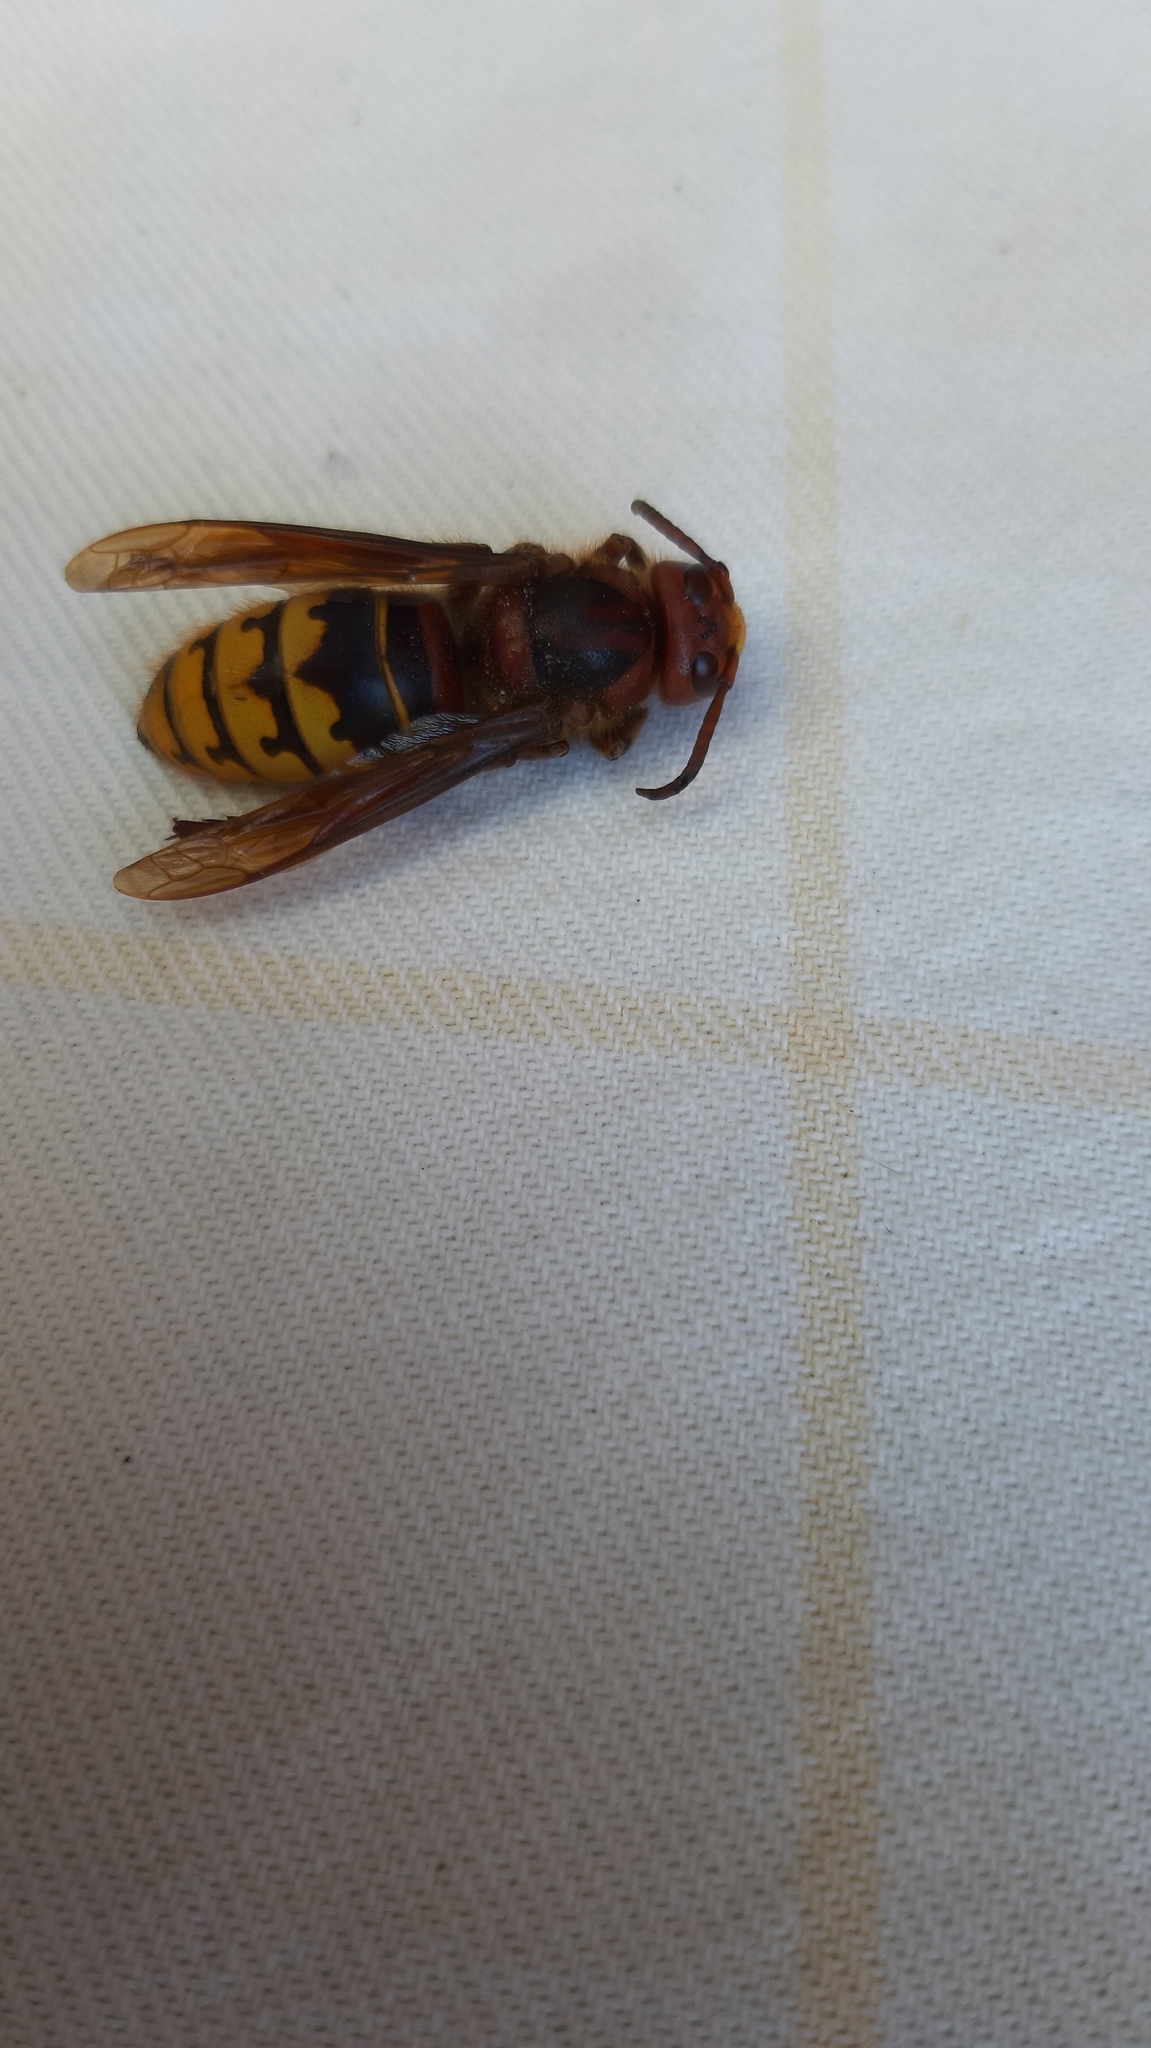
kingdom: Animalia
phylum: Arthropoda
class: Insecta
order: Hymenoptera
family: Vespidae
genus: Vespa
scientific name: Vespa crabro
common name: Hornet
